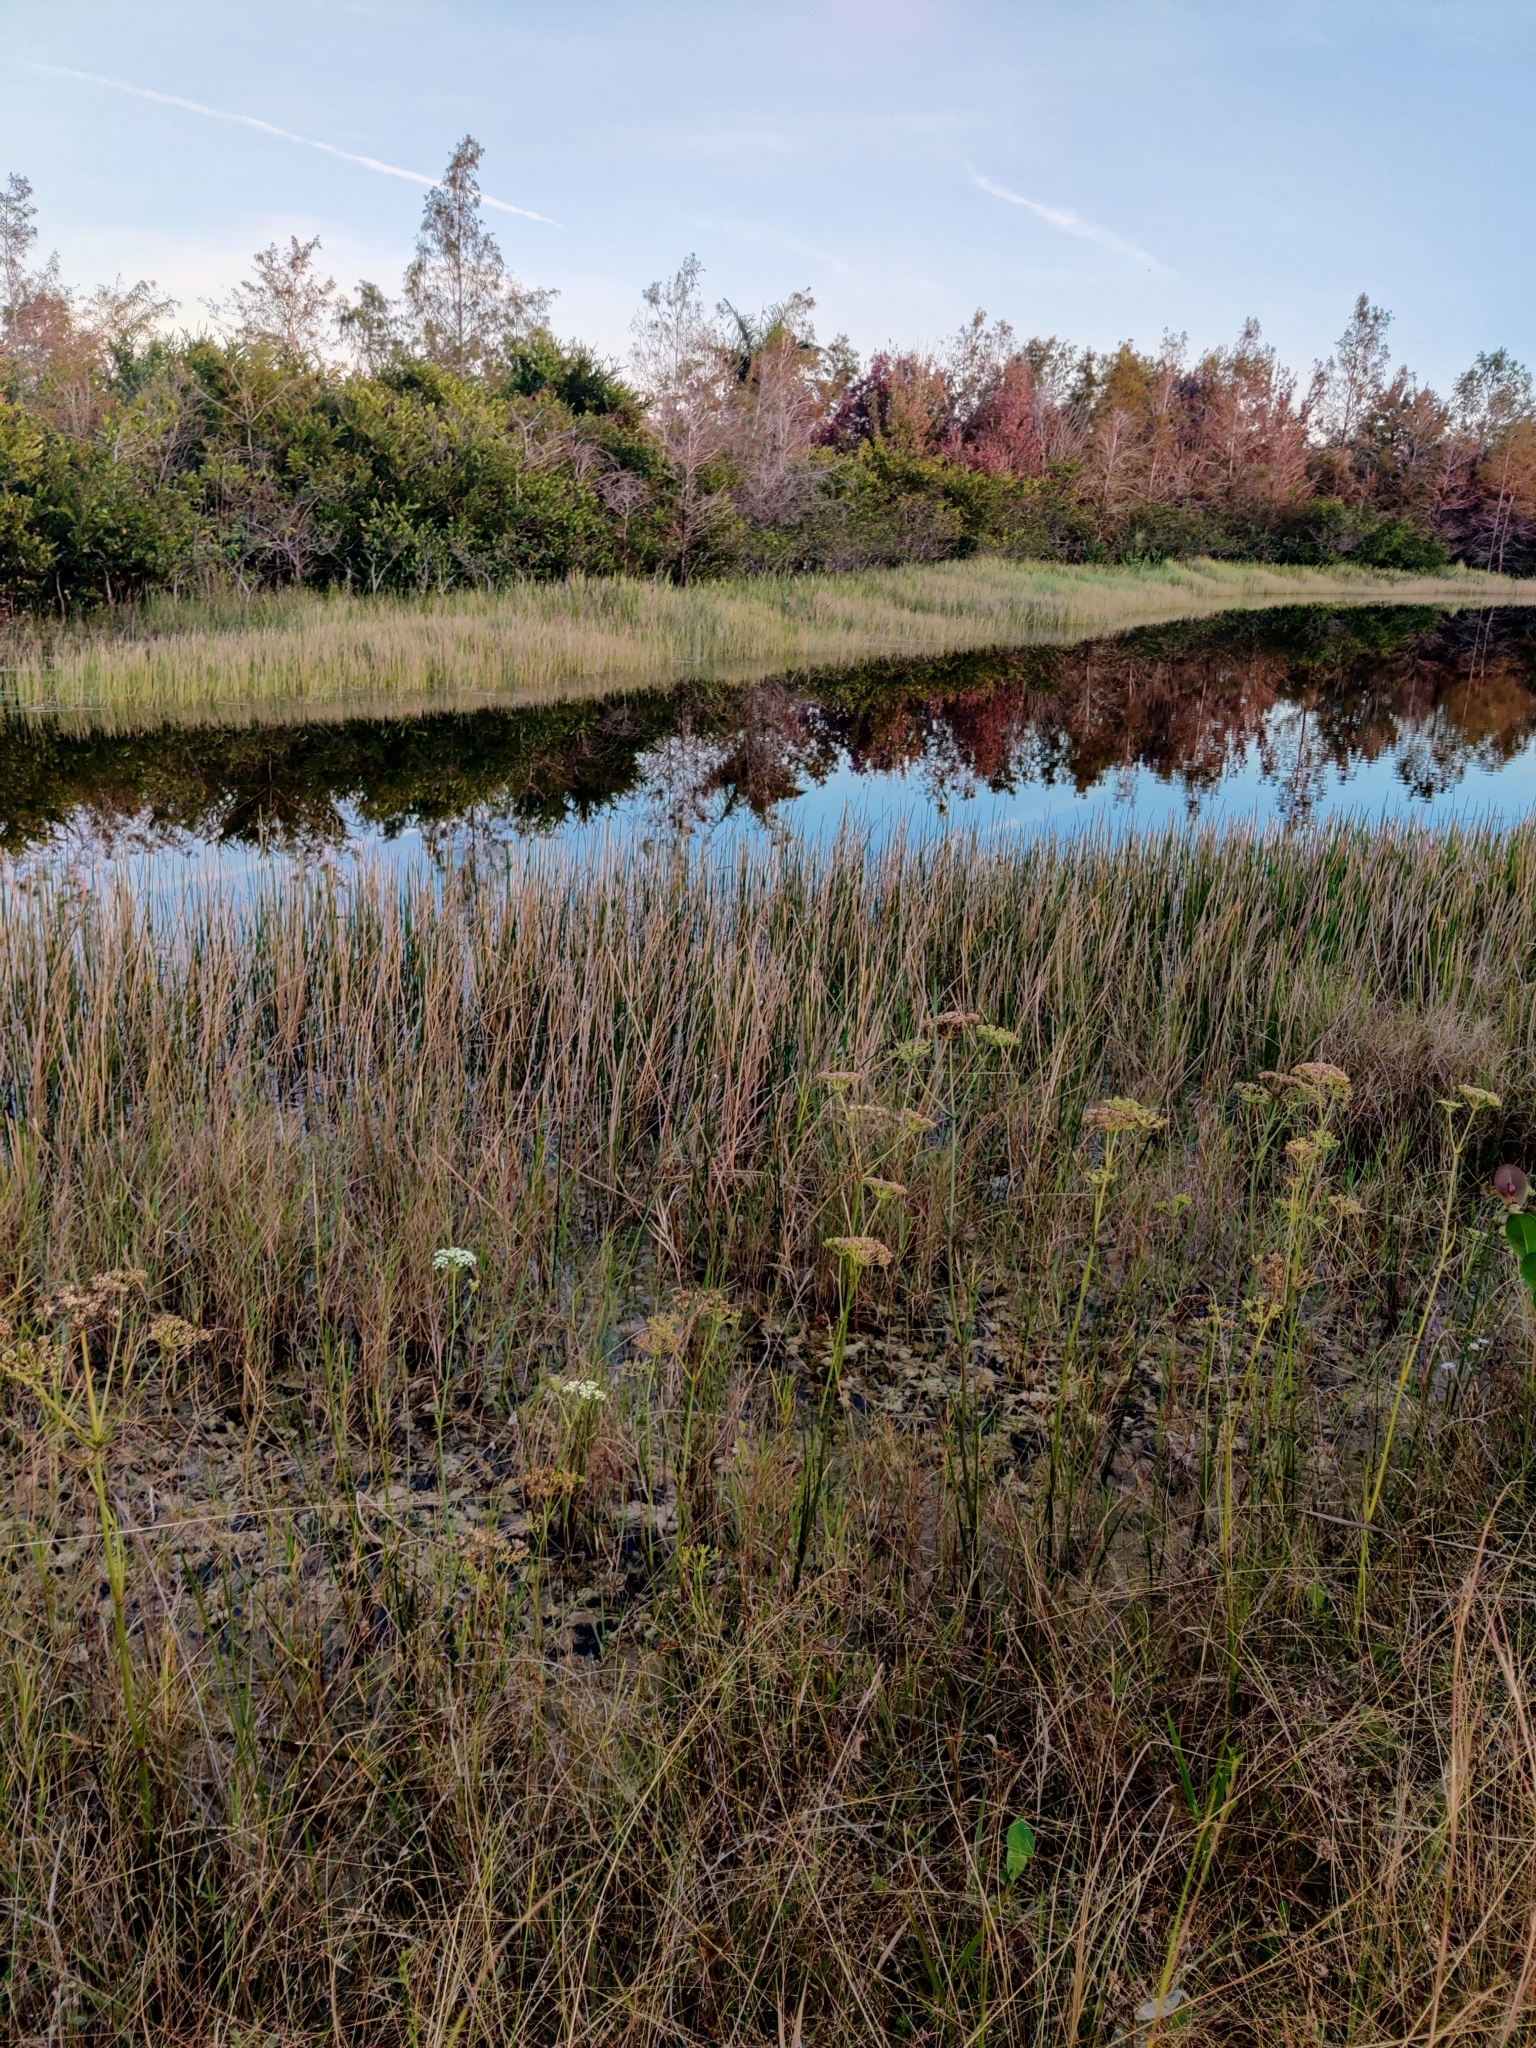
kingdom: Plantae
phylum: Tracheophyta
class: Magnoliopsida
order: Apiales
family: Apiaceae
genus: Tiedemannia
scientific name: Tiedemannia filiformis
